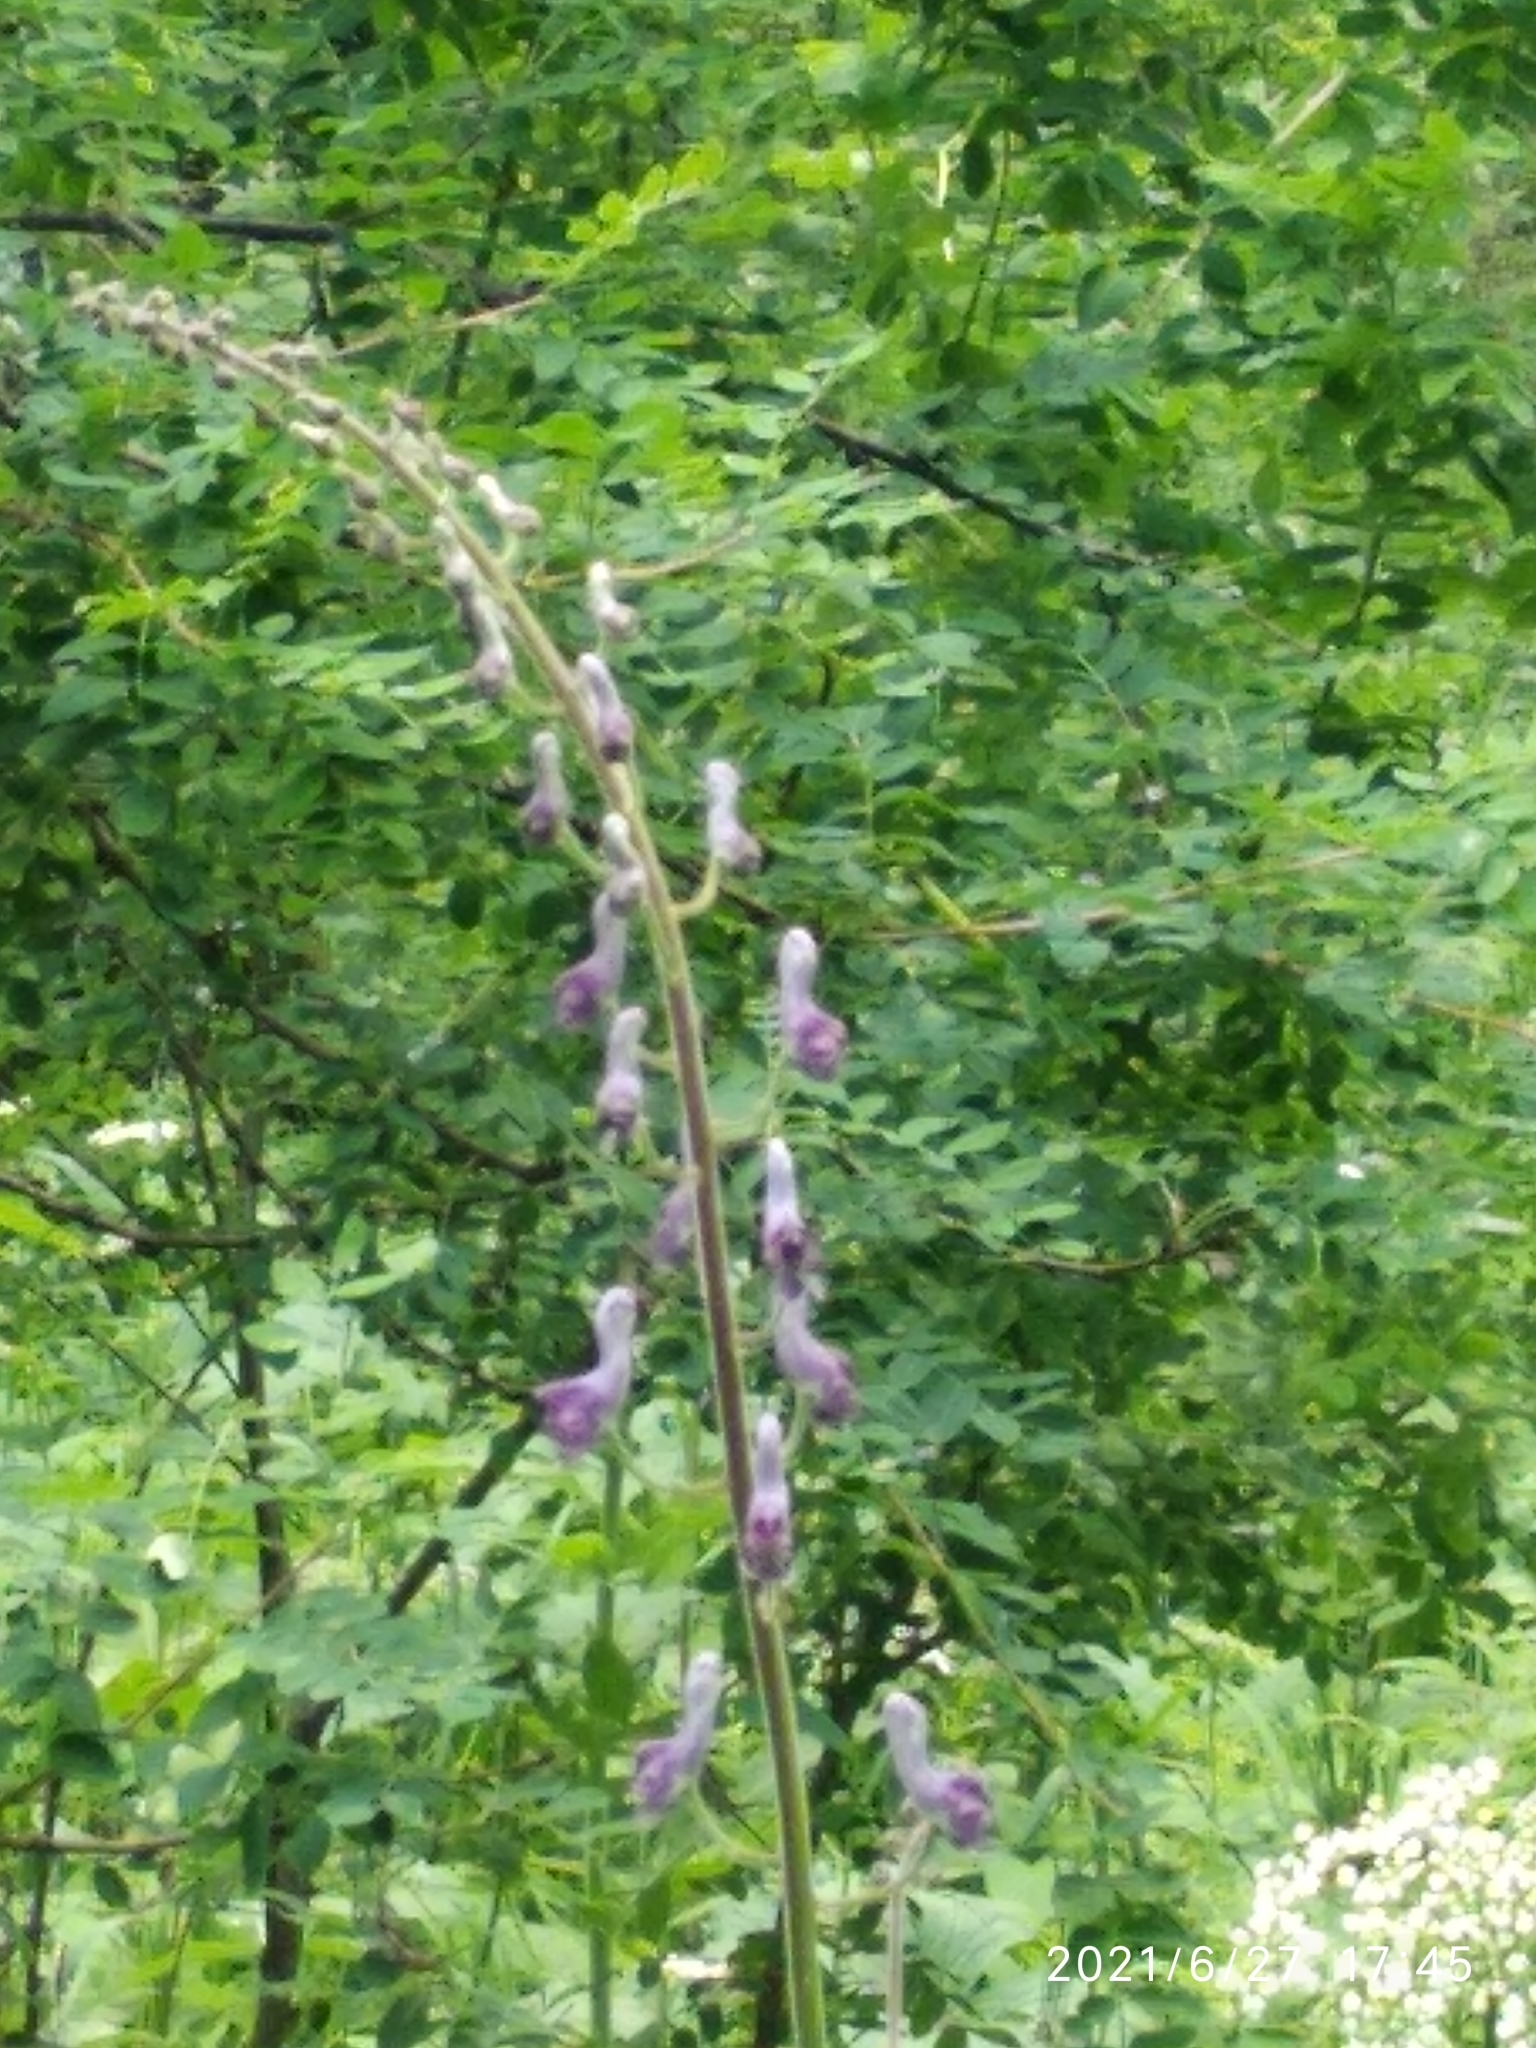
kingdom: Plantae
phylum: Tracheophyta
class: Magnoliopsida
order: Ranunculales
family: Ranunculaceae
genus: Aconitum
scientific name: Aconitum septentrionale
